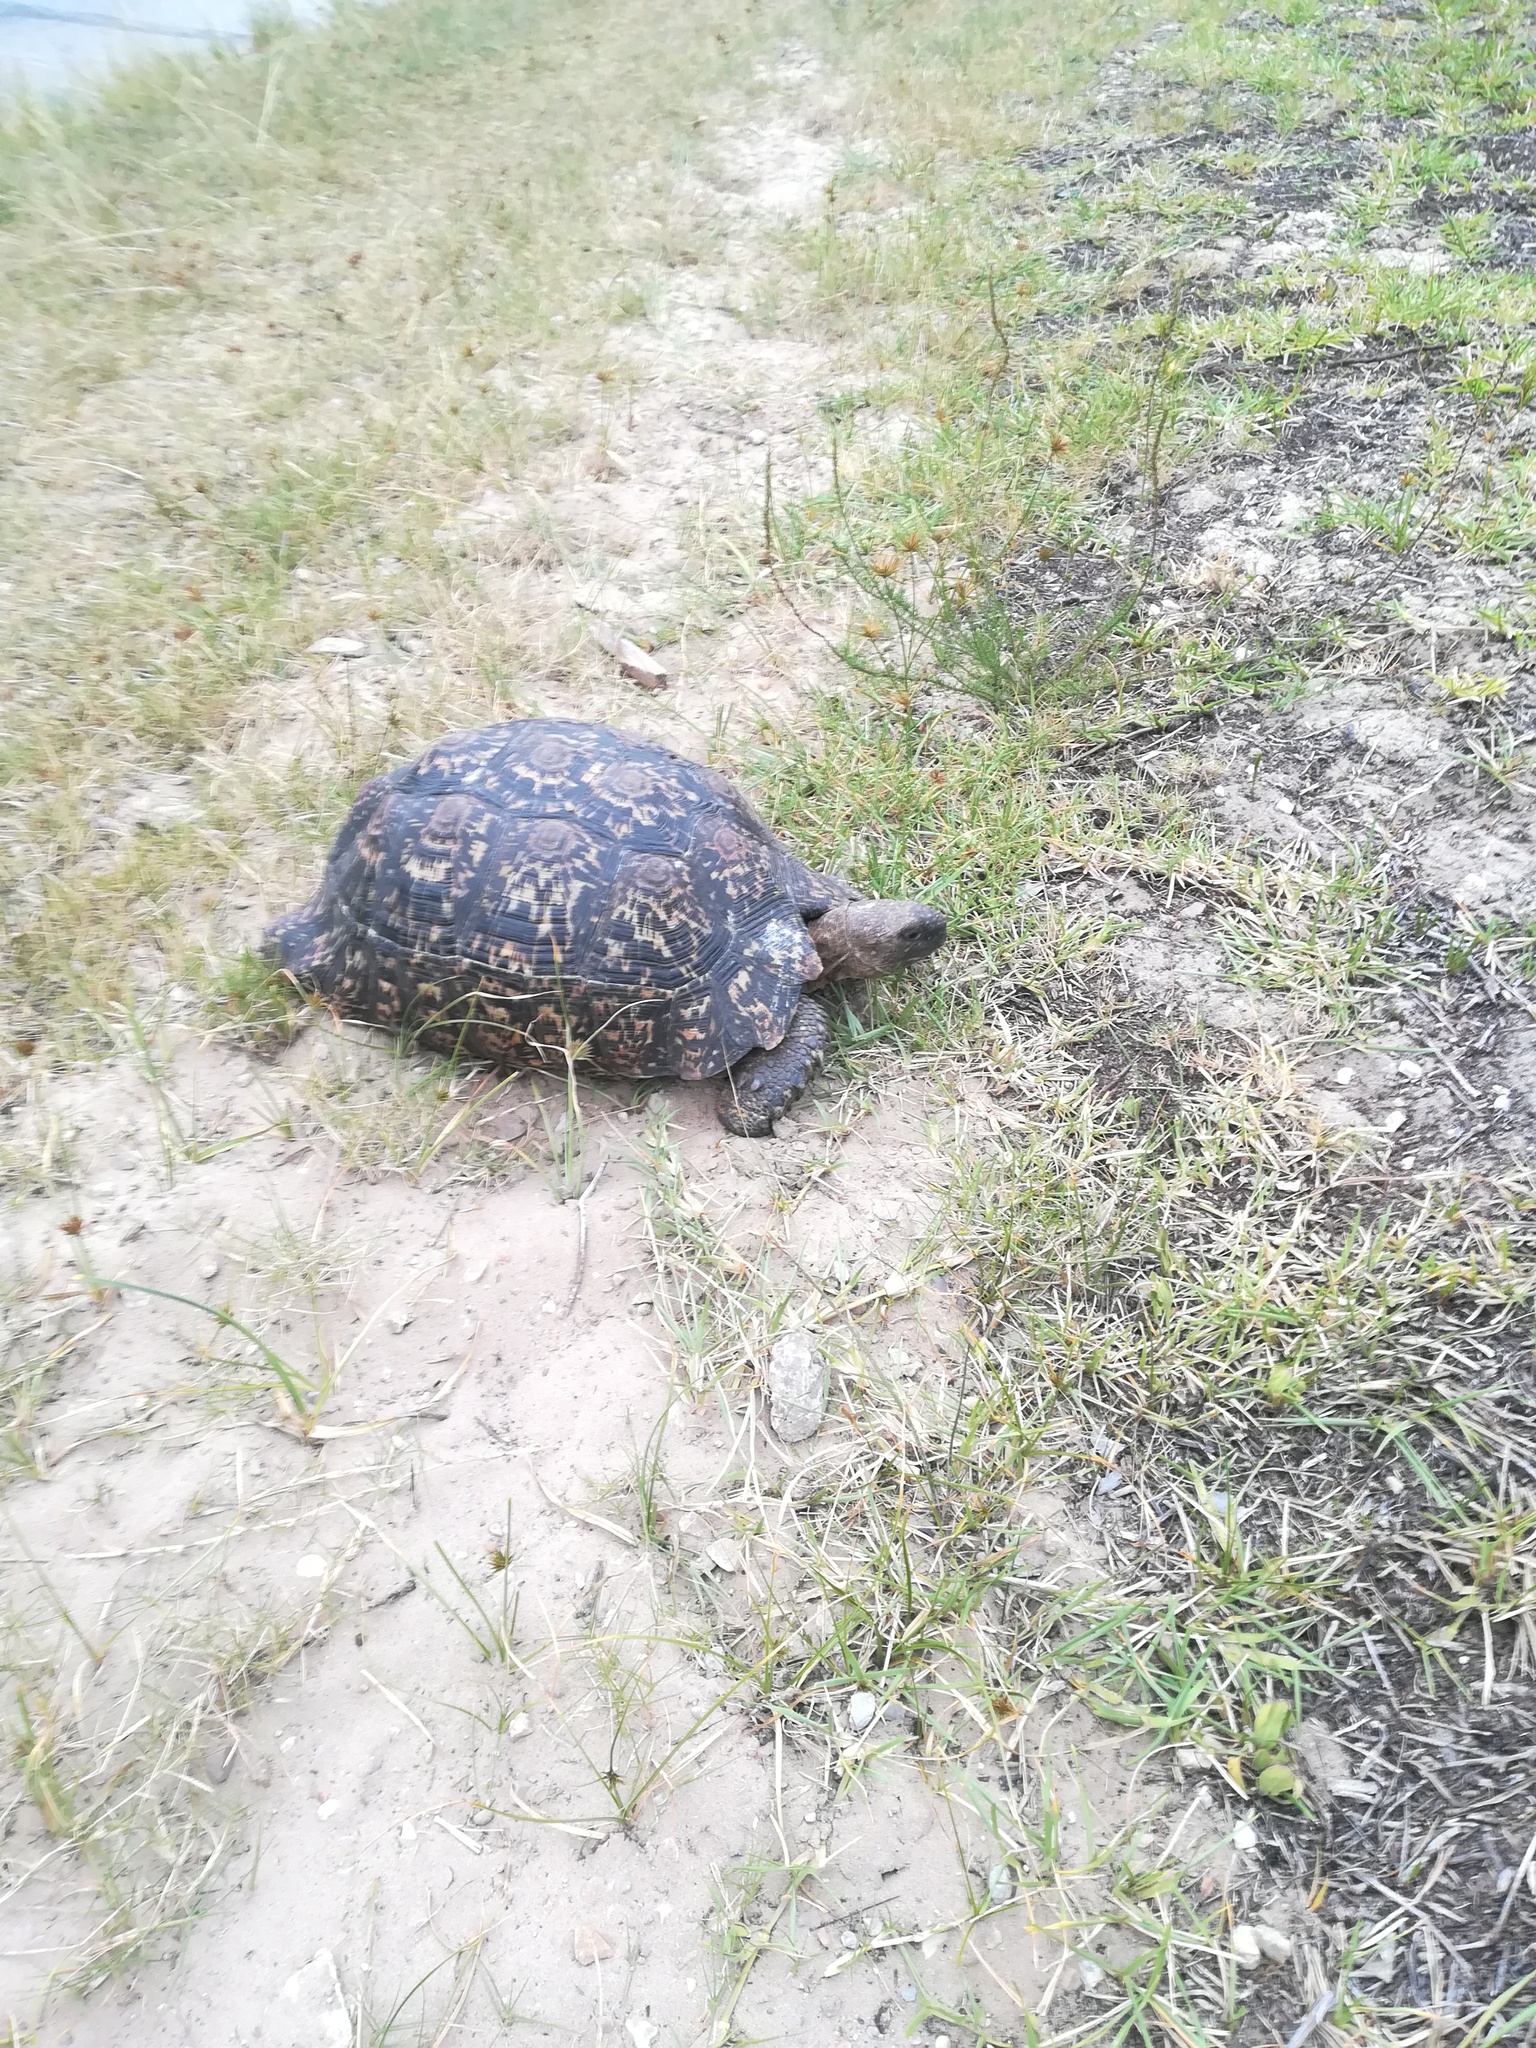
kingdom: Animalia
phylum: Chordata
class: Testudines
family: Testudinidae
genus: Stigmochelys
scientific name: Stigmochelys pardalis
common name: Leopard tortoise
